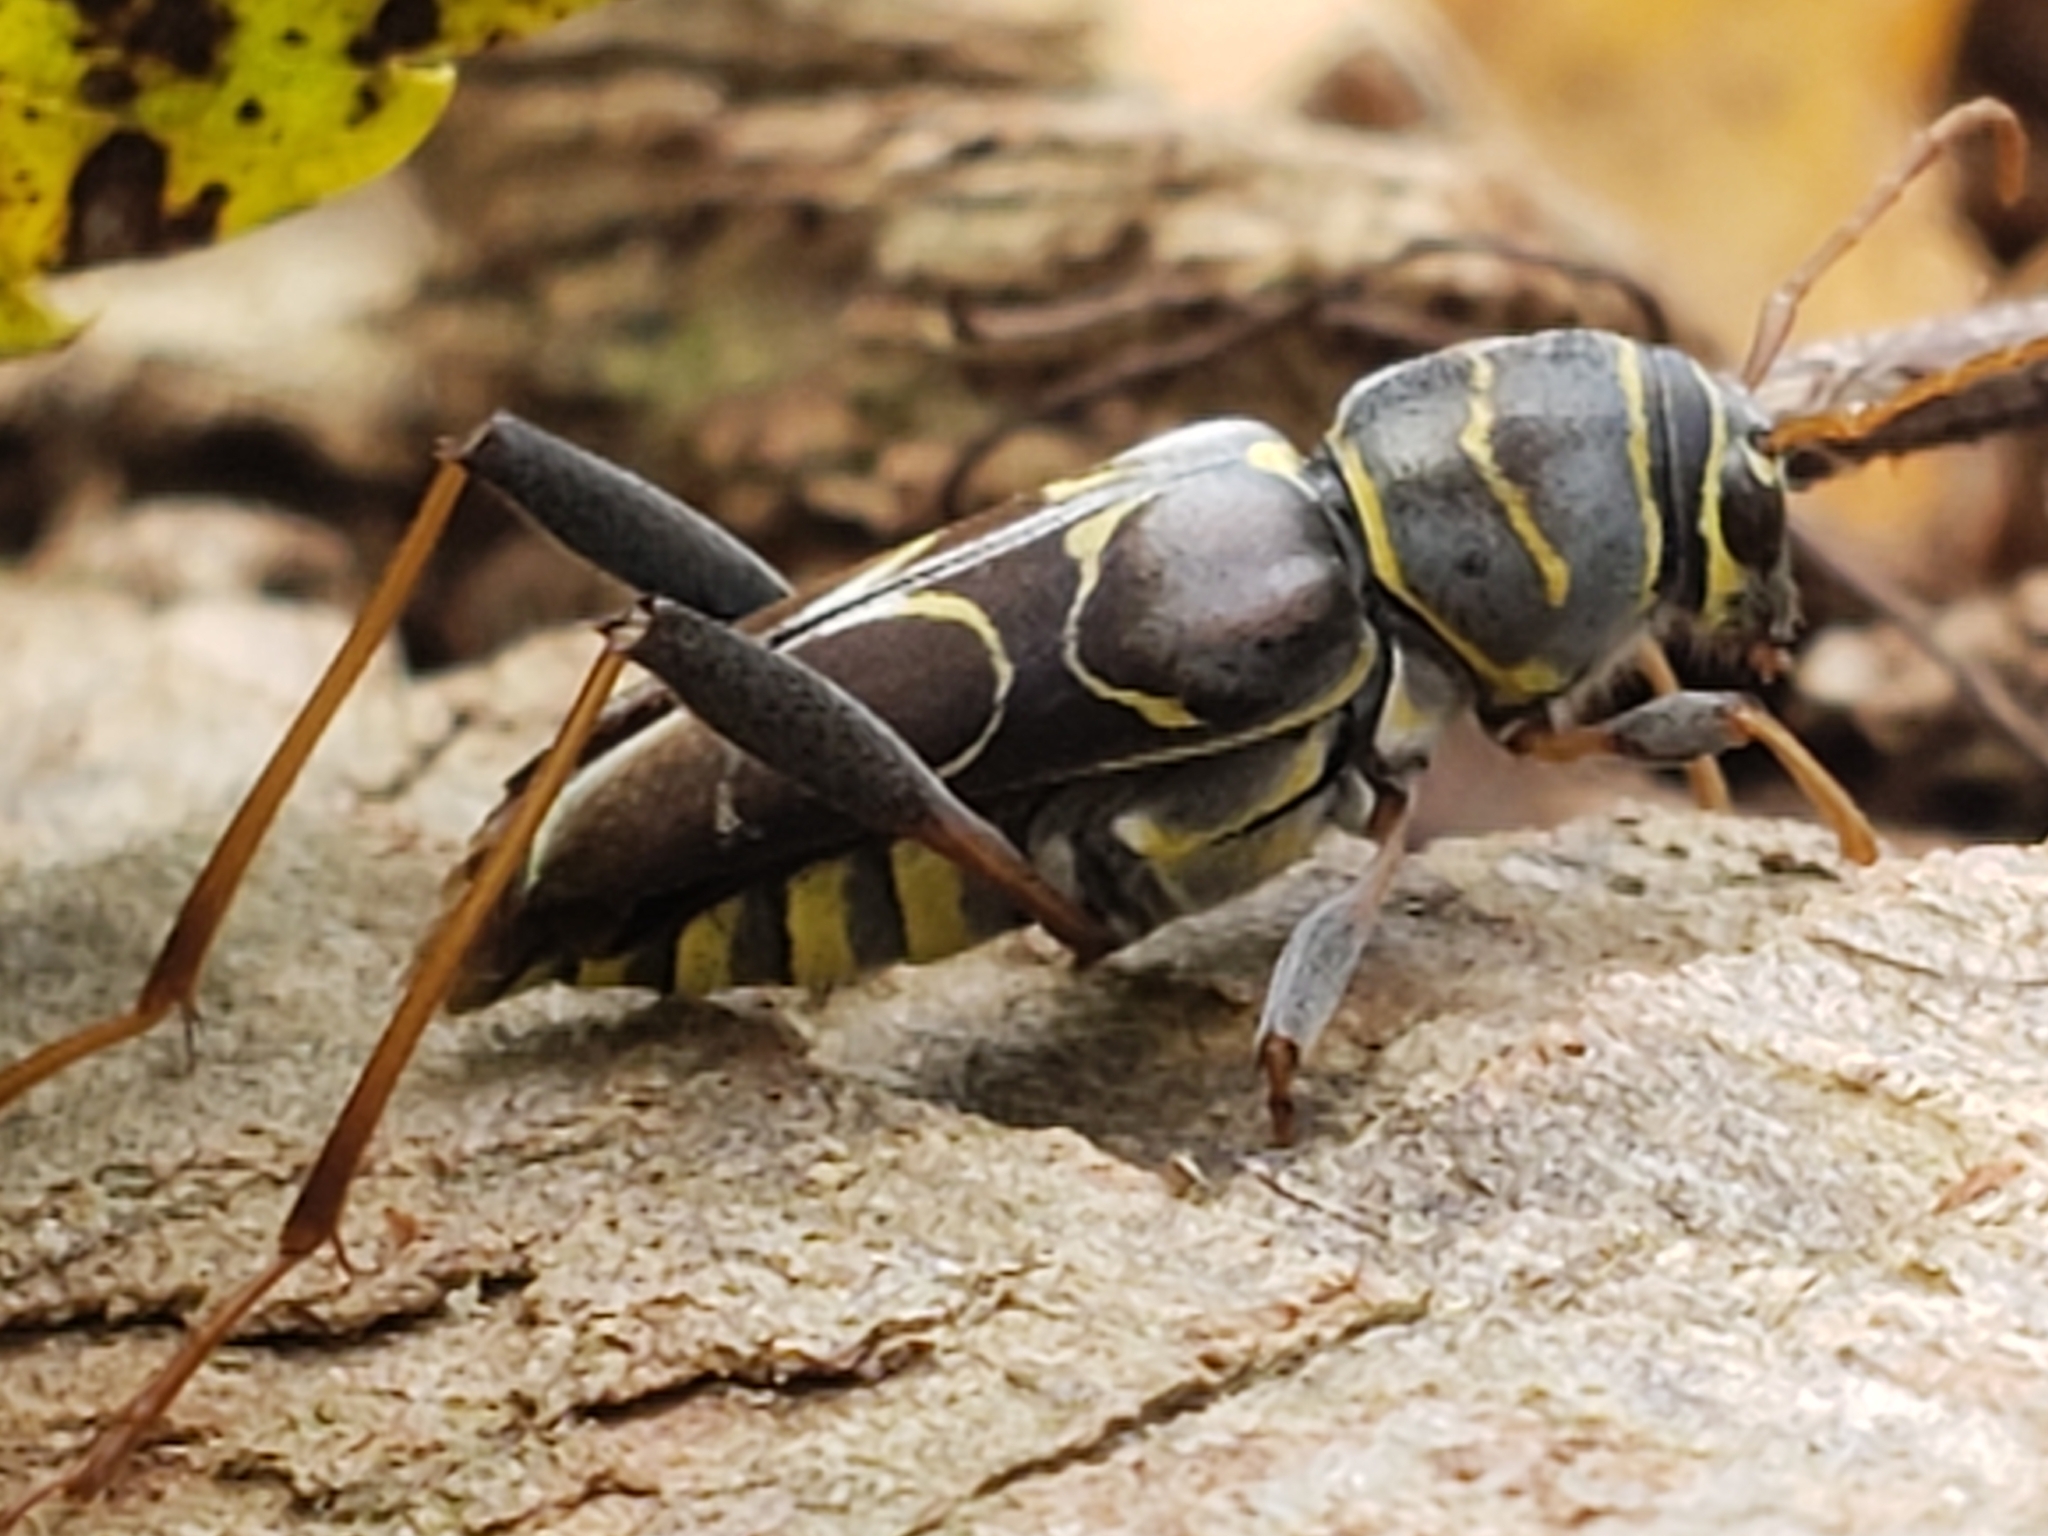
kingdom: Animalia
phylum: Arthropoda
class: Insecta
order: Coleoptera
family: Cerambycidae
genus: Neoclytus
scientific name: Neoclytus scutellaris
